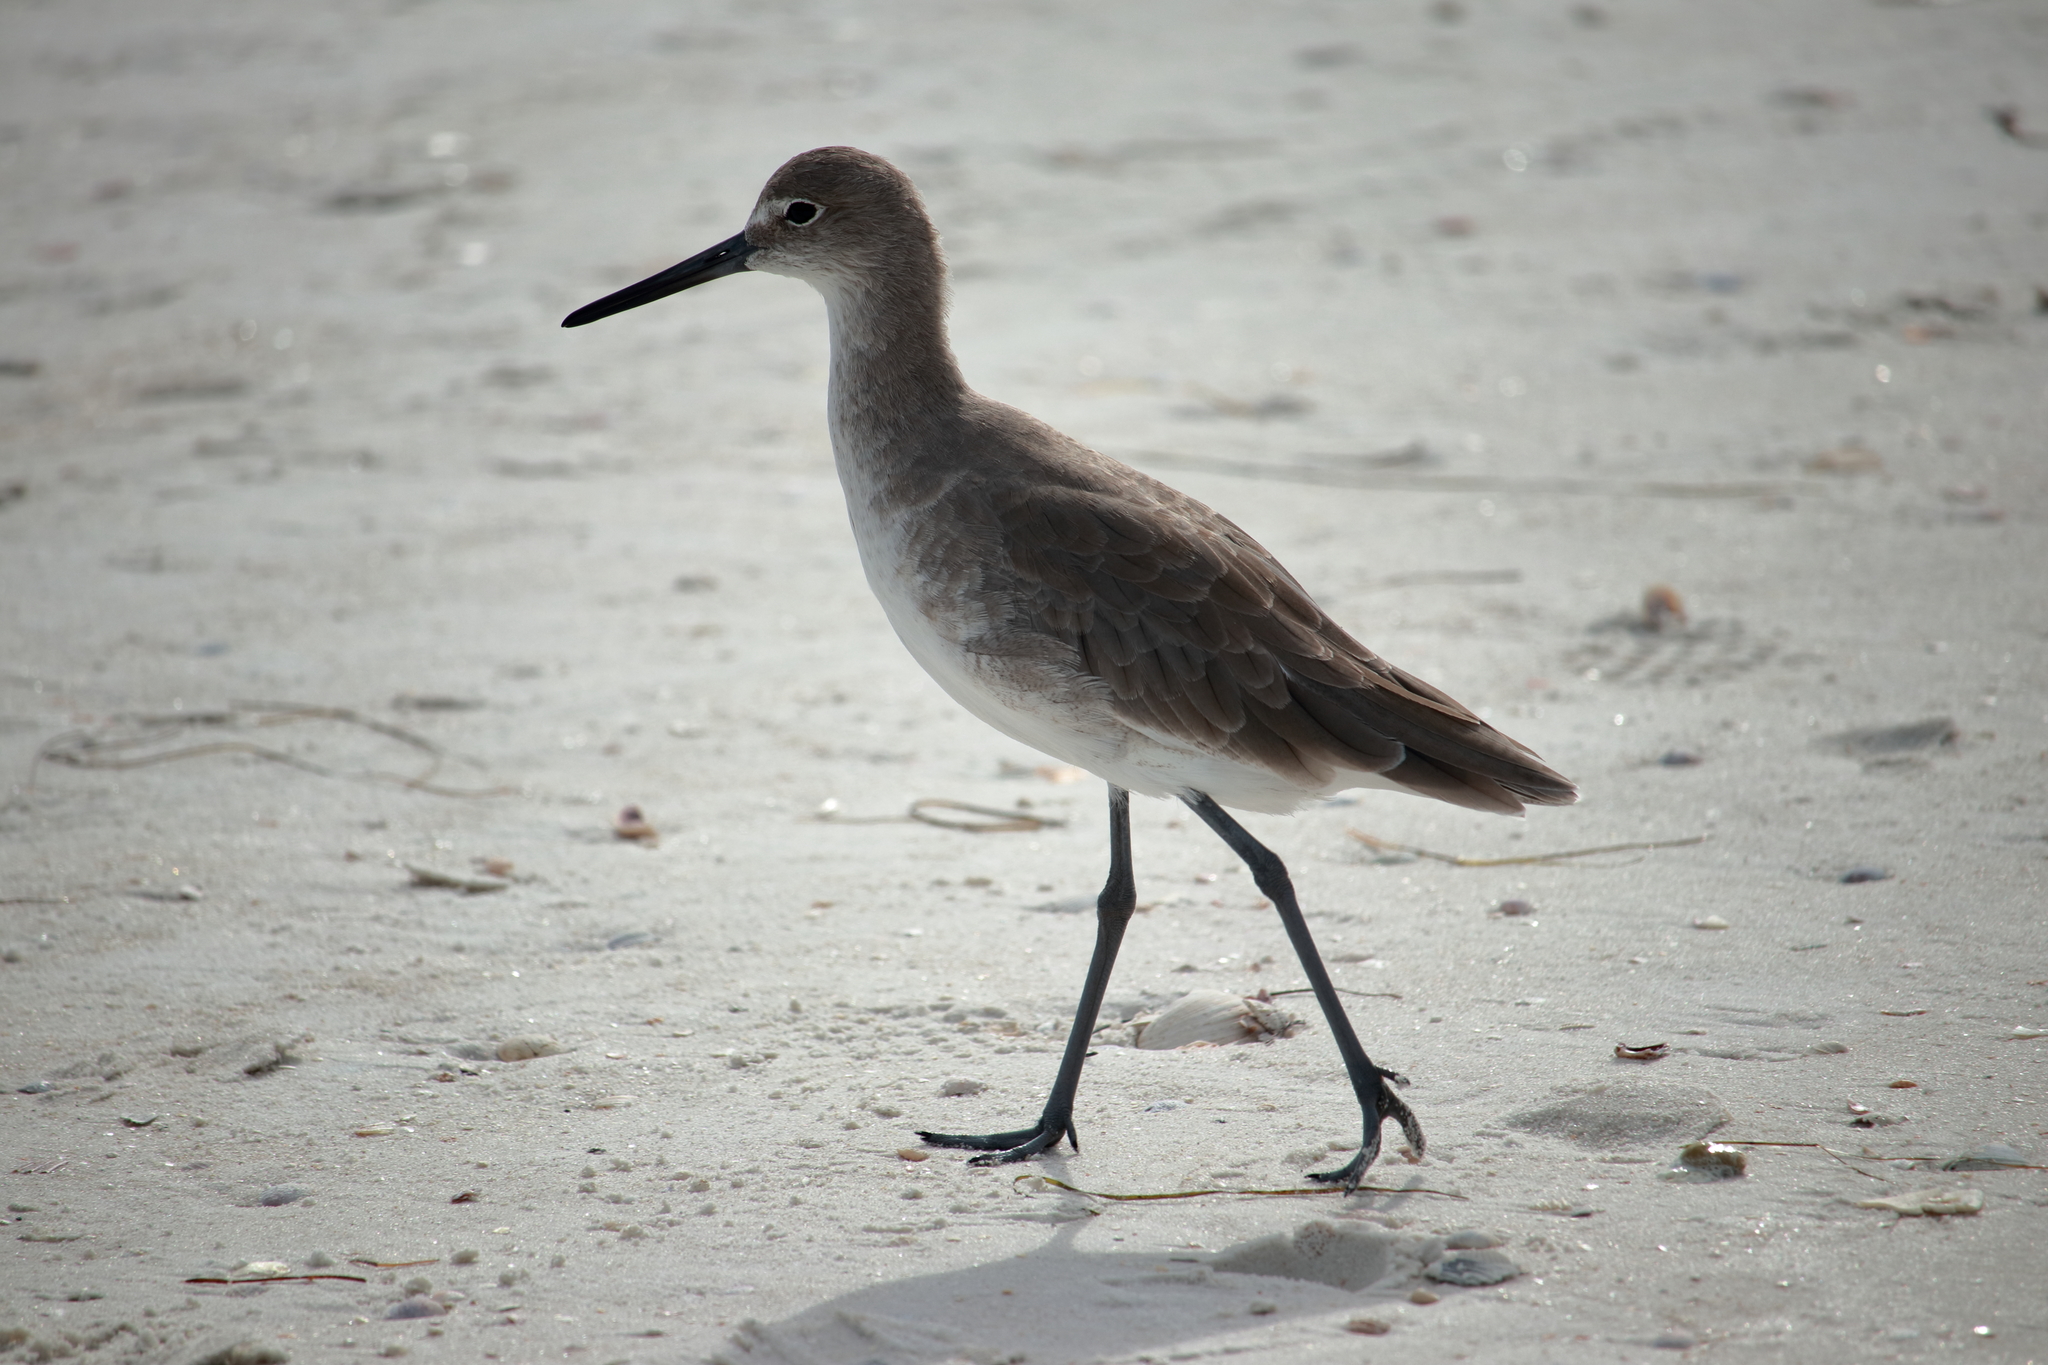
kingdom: Animalia
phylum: Chordata
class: Aves
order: Charadriiformes
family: Scolopacidae
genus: Tringa
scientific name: Tringa semipalmata
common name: Willet
